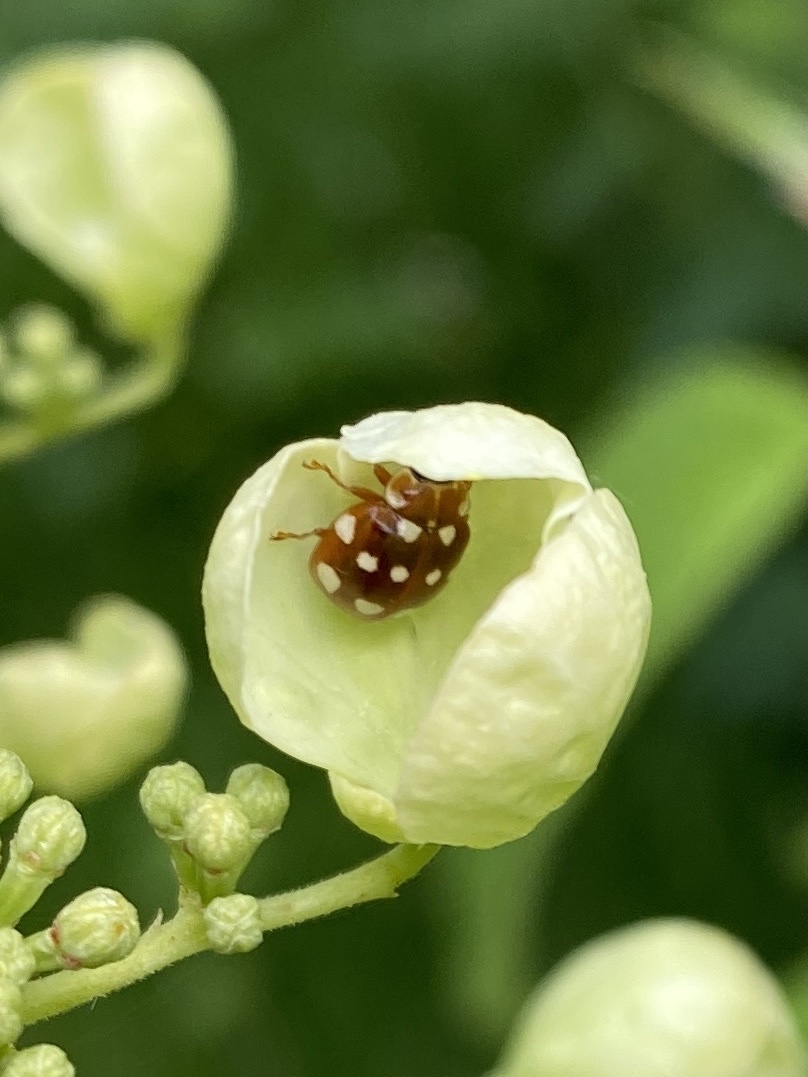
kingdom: Animalia
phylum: Arthropoda
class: Insecta
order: Coleoptera
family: Coccinellidae
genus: Calvia
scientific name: Calvia quatuordecimguttata
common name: Cream-spot ladybird
